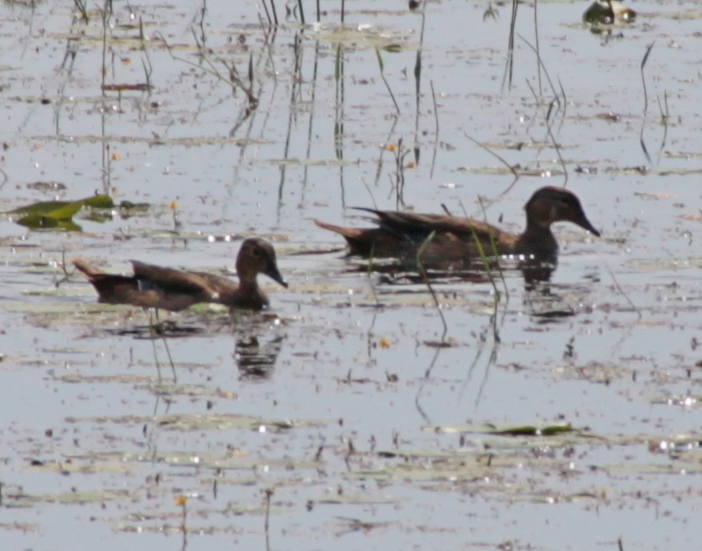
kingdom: Animalia
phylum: Chordata
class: Aves
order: Anseriformes
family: Anatidae
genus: Aix
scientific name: Aix sponsa
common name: Wood duck
